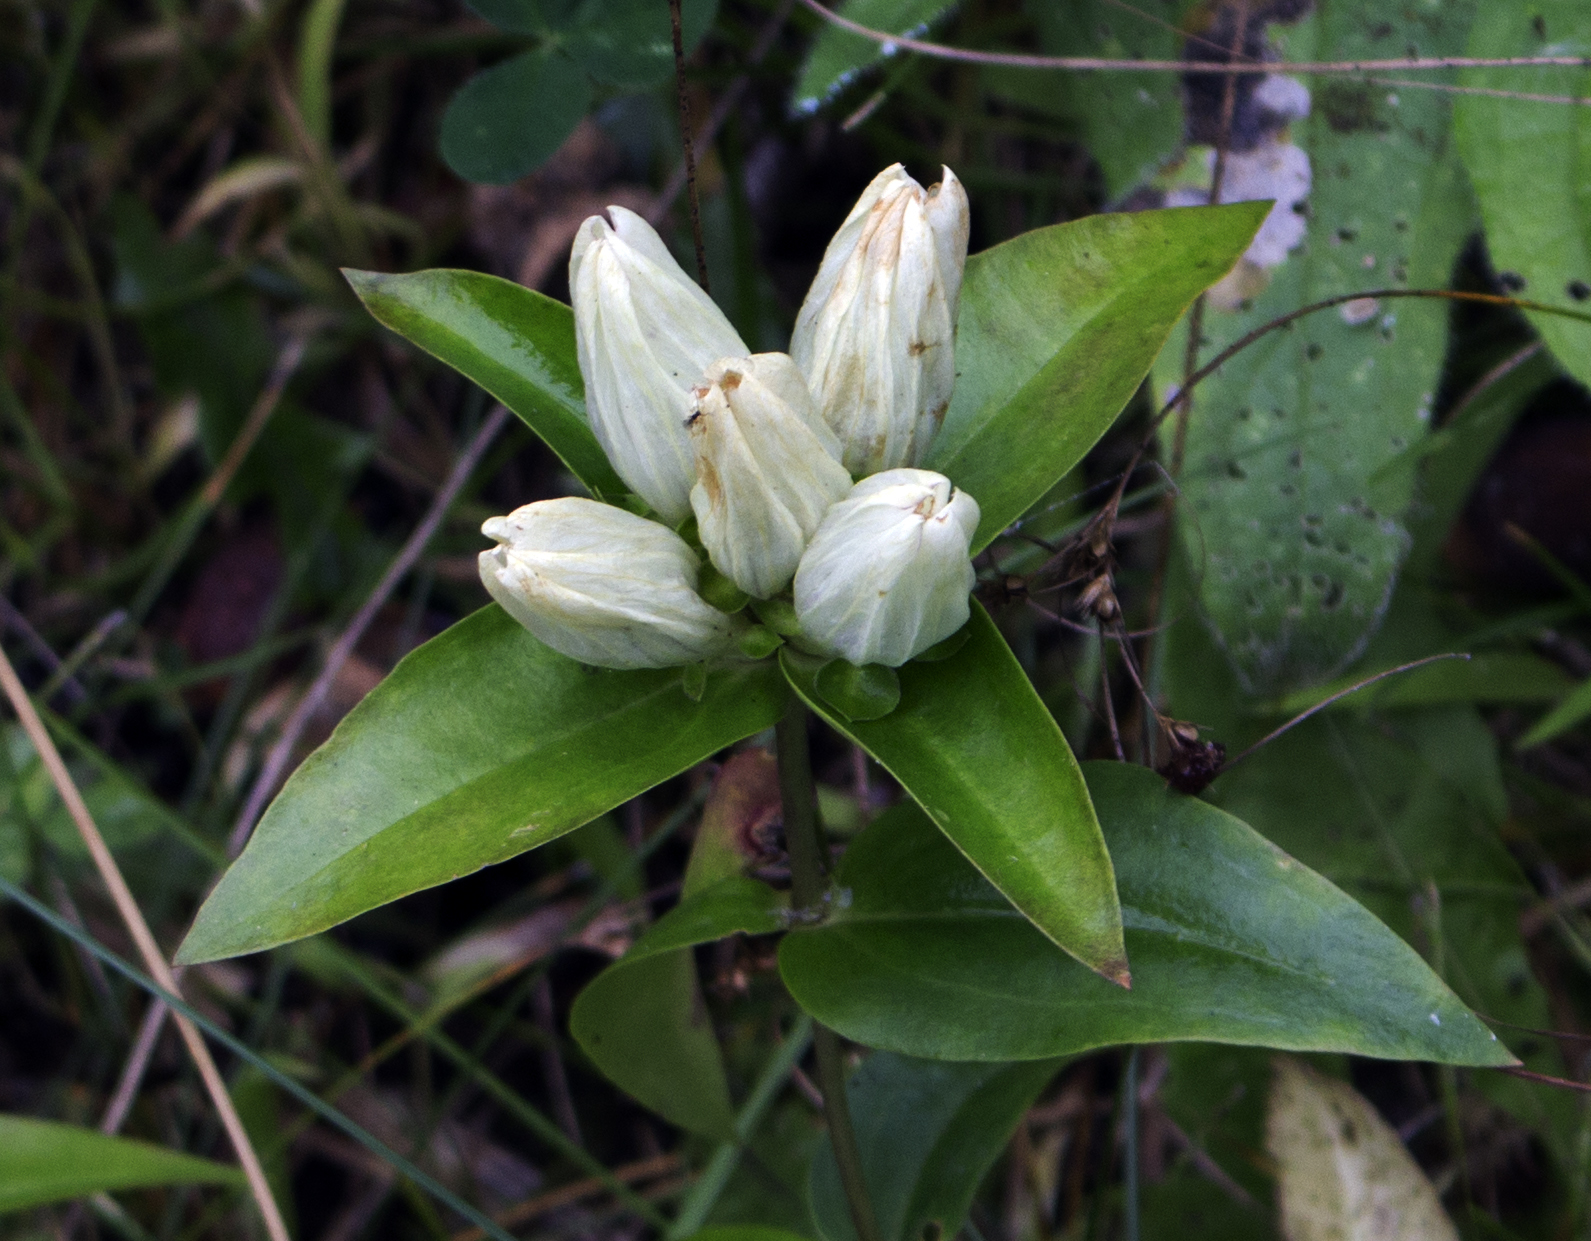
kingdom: Plantae
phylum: Tracheophyta
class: Magnoliopsida
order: Gentianales
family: Gentianaceae
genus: Gentiana
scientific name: Gentiana alba
